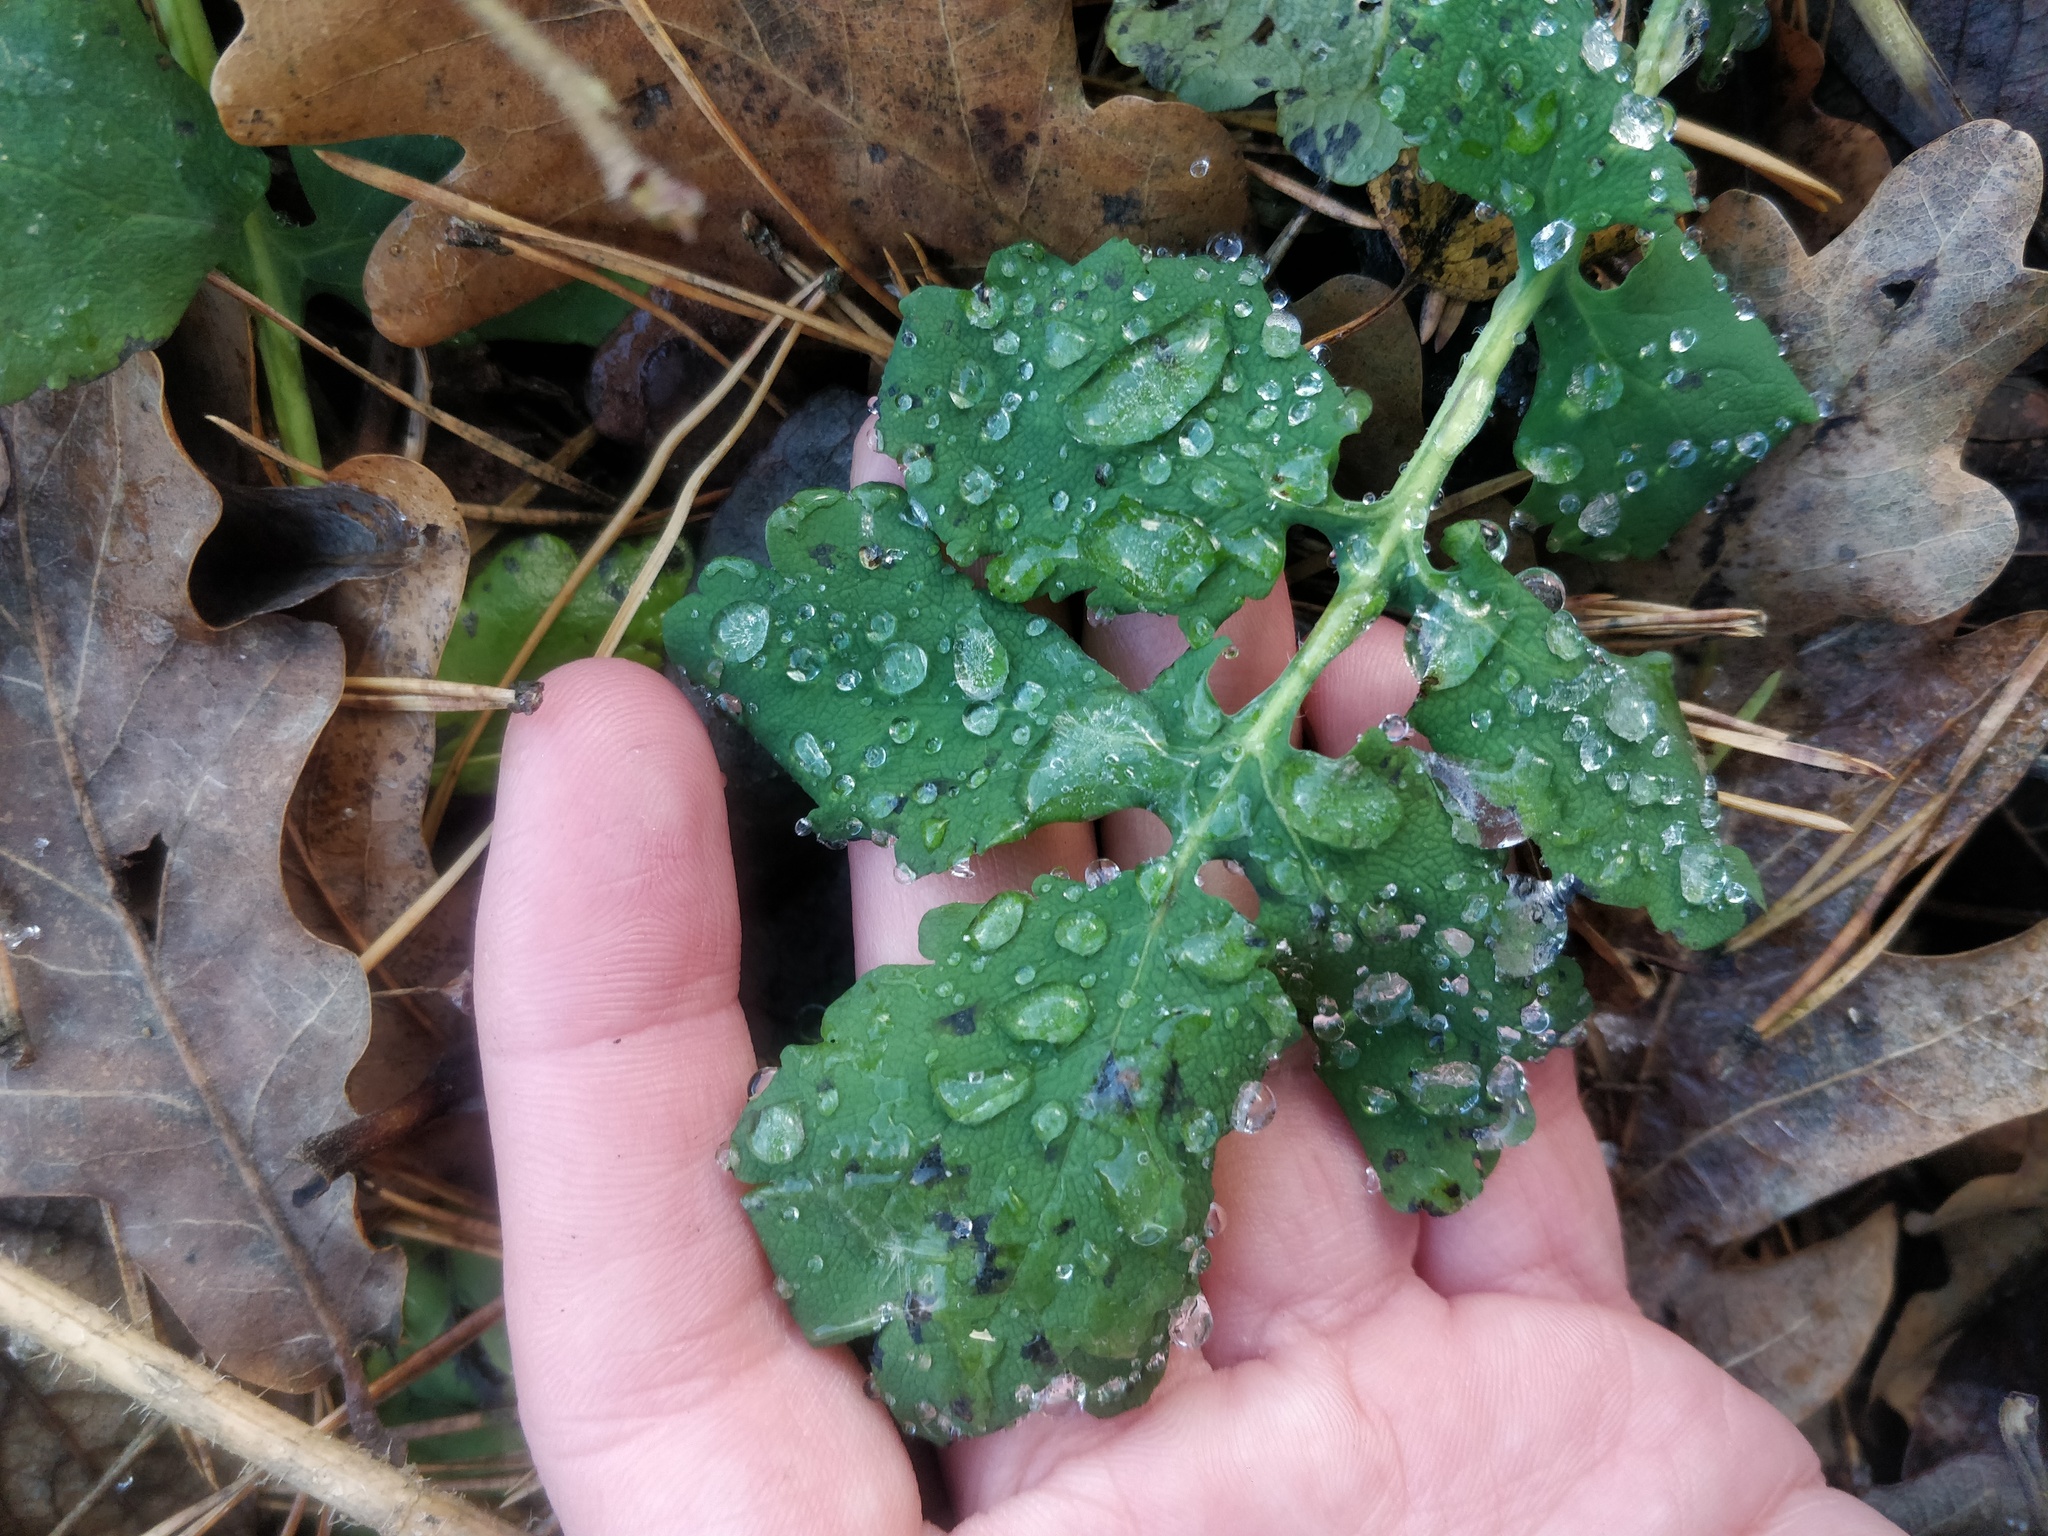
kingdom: Plantae
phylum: Tracheophyta
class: Magnoliopsida
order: Ranunculales
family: Papaveraceae
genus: Chelidonium
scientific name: Chelidonium majus
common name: Greater celandine
